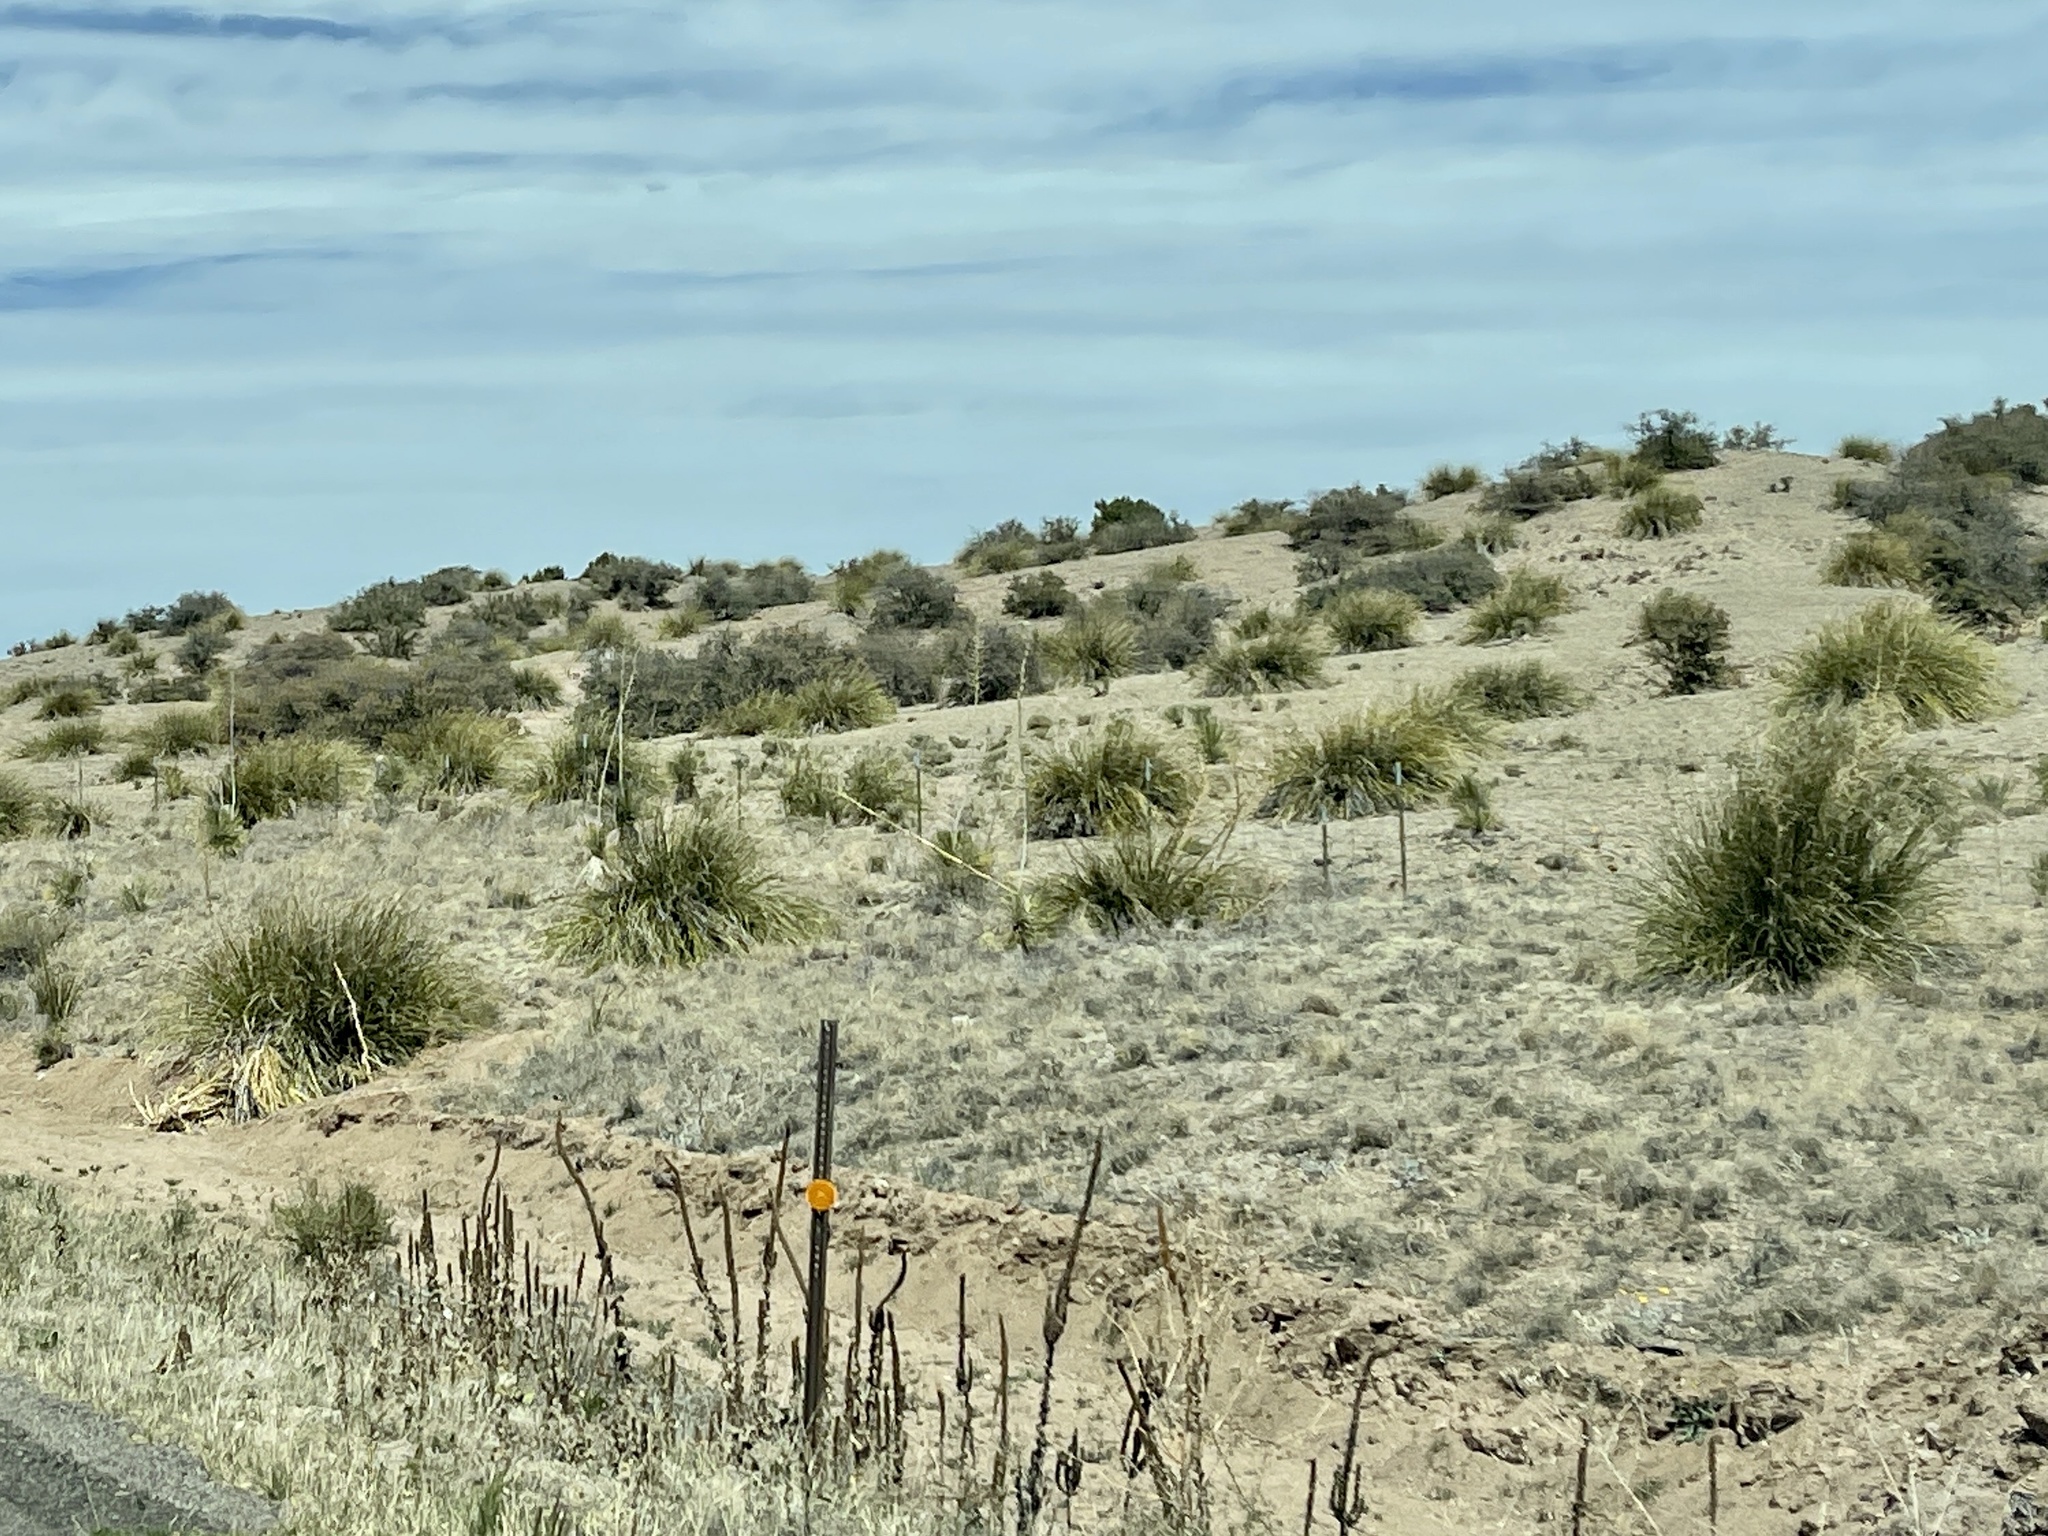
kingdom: Plantae
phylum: Tracheophyta
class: Liliopsida
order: Asparagales
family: Asparagaceae
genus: Nolina
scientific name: Nolina microcarpa
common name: Bear-grass
